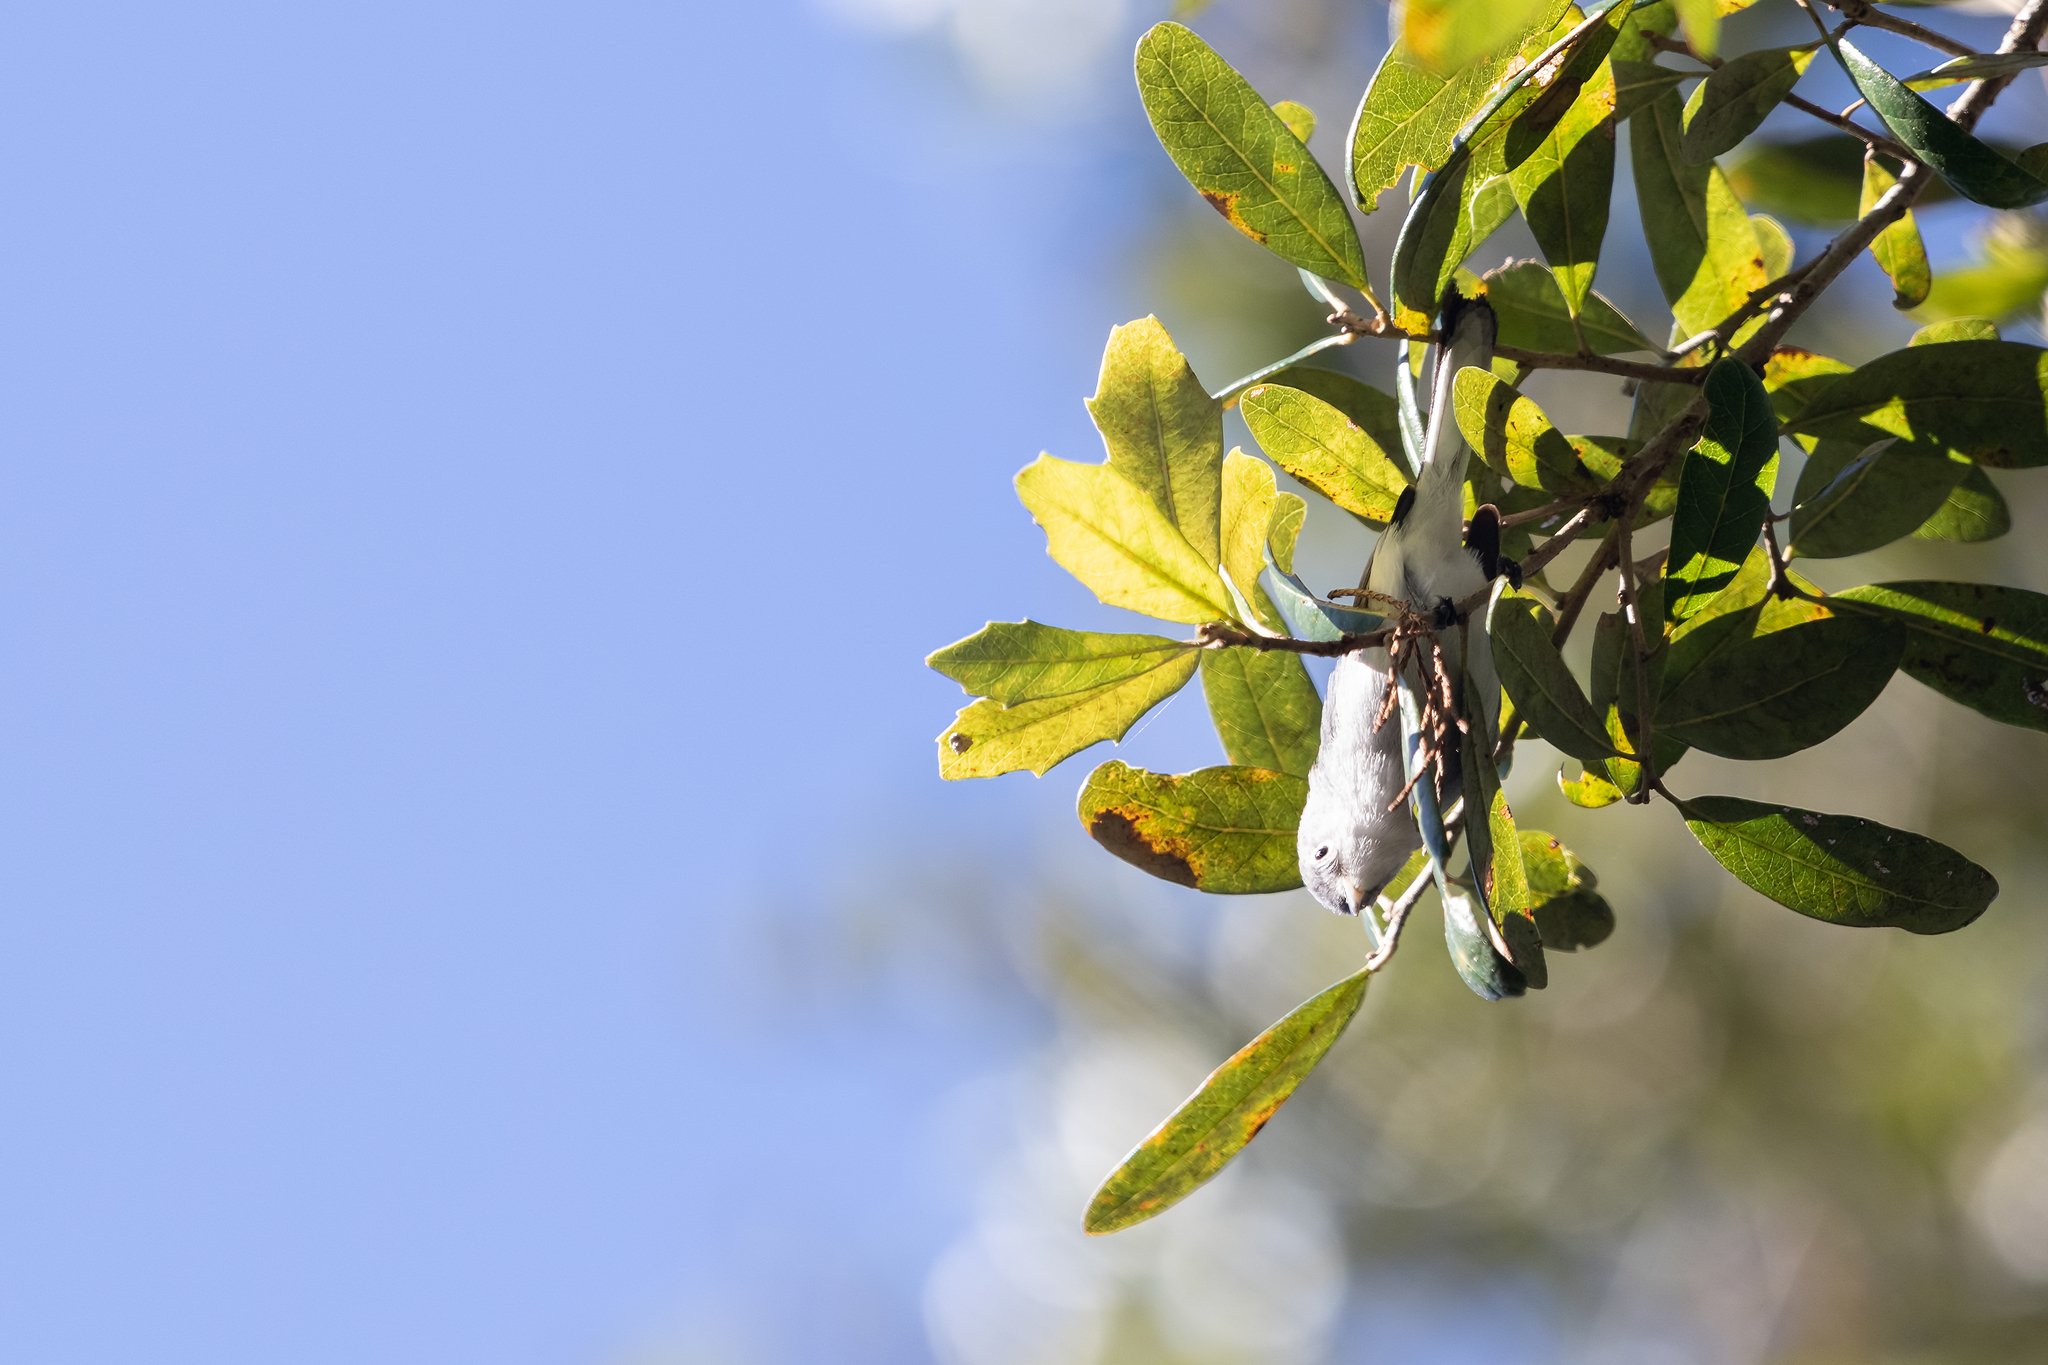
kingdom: Animalia
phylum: Chordata
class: Aves
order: Passeriformes
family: Polioptilidae
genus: Polioptila
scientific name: Polioptila caerulea
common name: Blue-gray gnatcatcher
